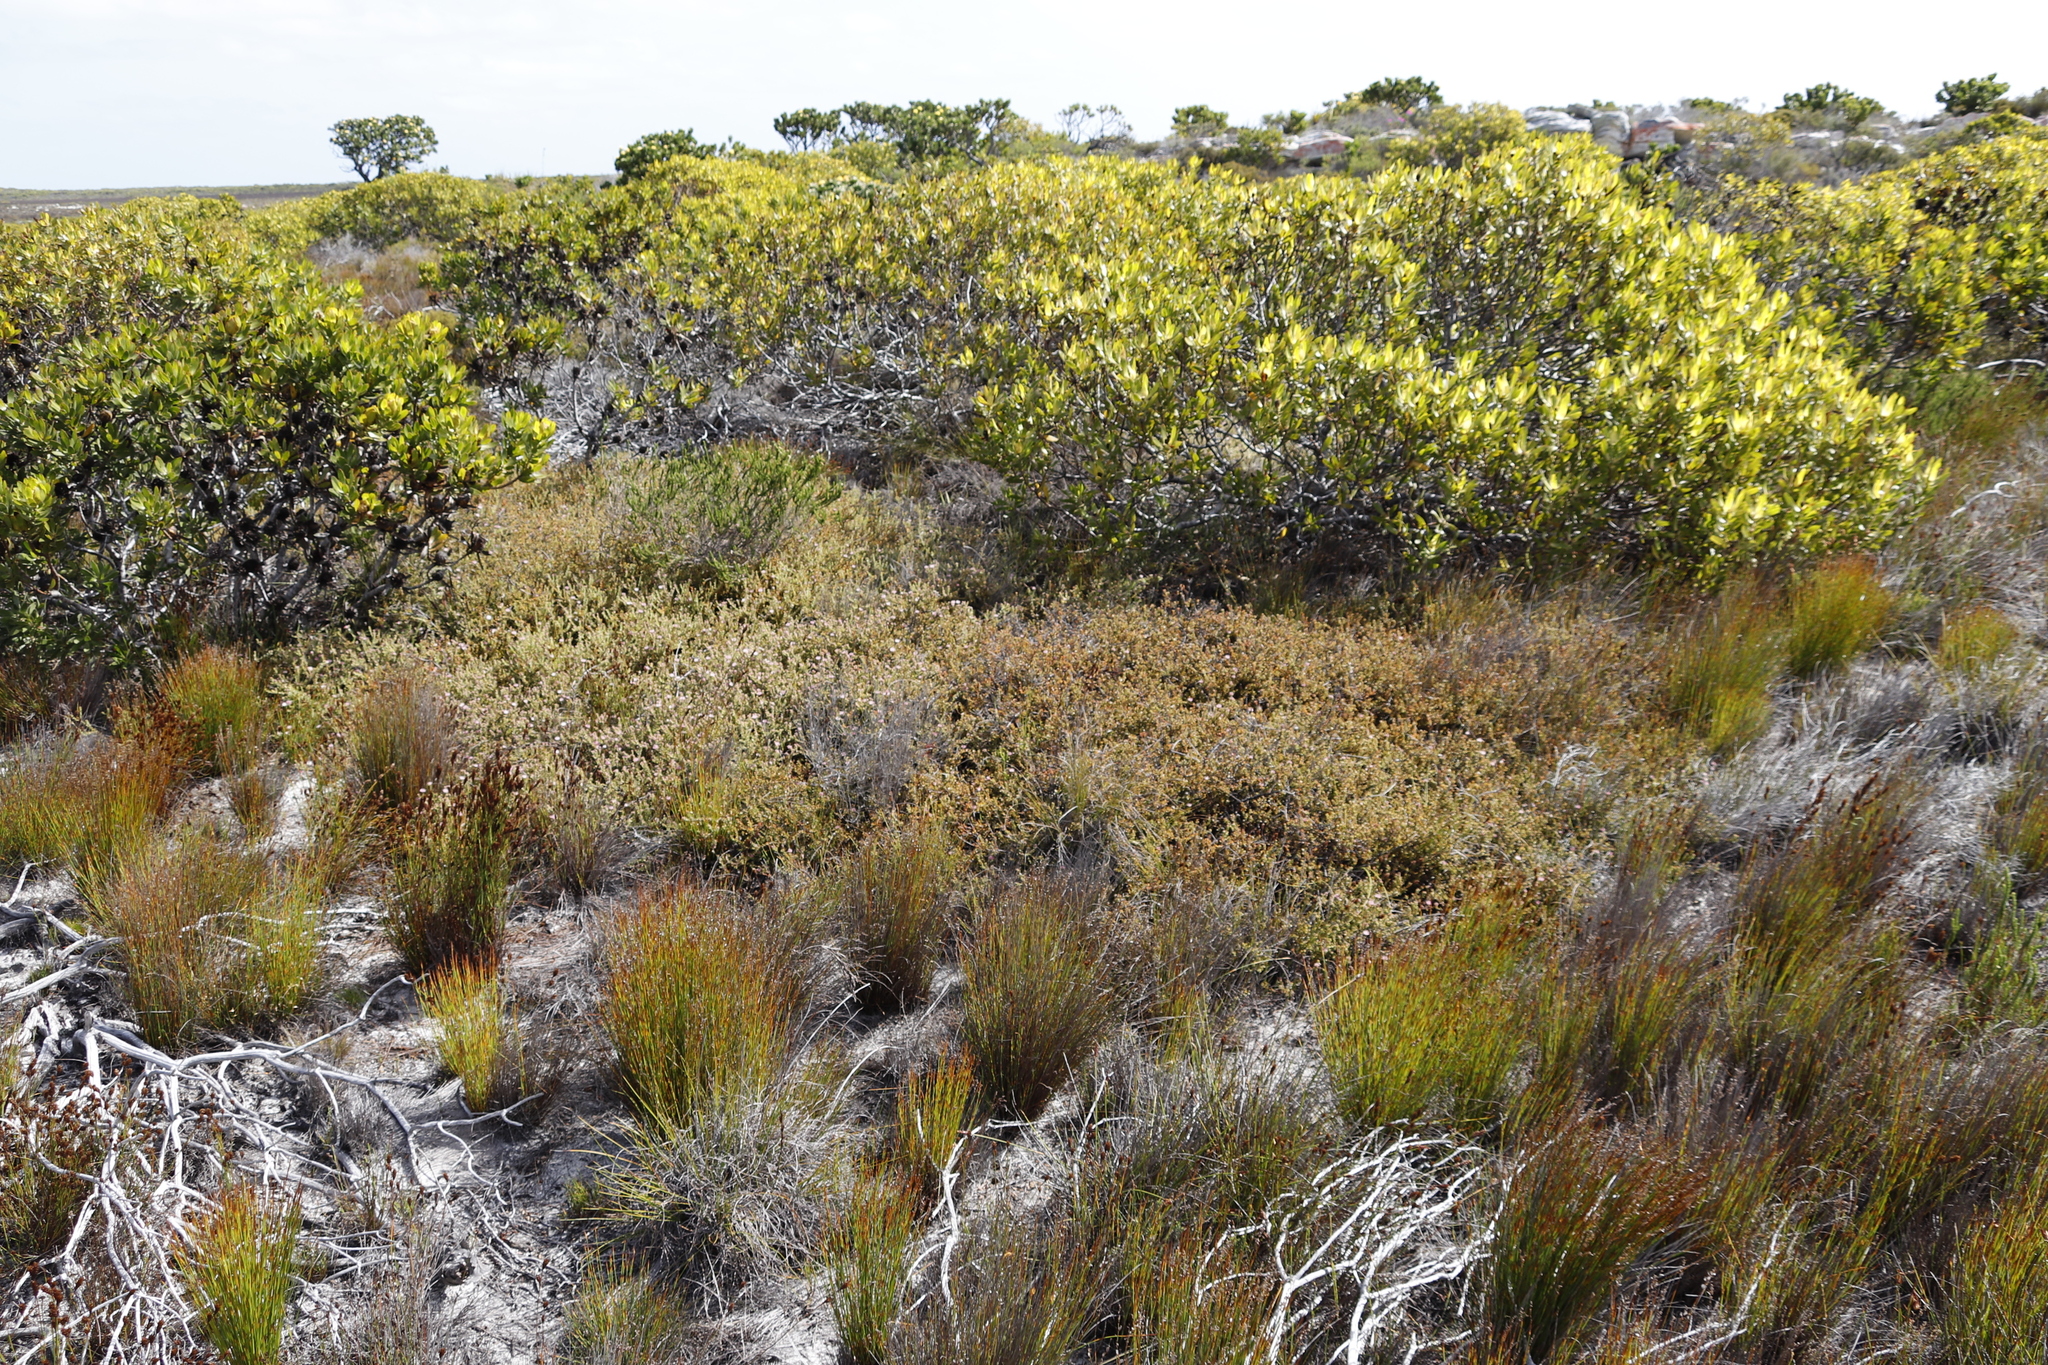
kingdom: Plantae
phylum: Tracheophyta
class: Magnoliopsida
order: Proteales
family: Proteaceae
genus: Diastella
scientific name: Diastella divaricata
